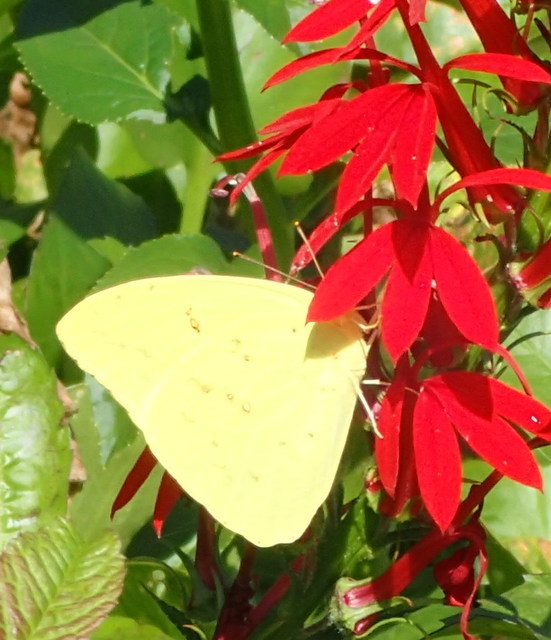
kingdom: Animalia
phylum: Arthropoda
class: Insecta
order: Lepidoptera
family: Pieridae
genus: Phoebis
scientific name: Phoebis sennae
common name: Cloudless sulphur
